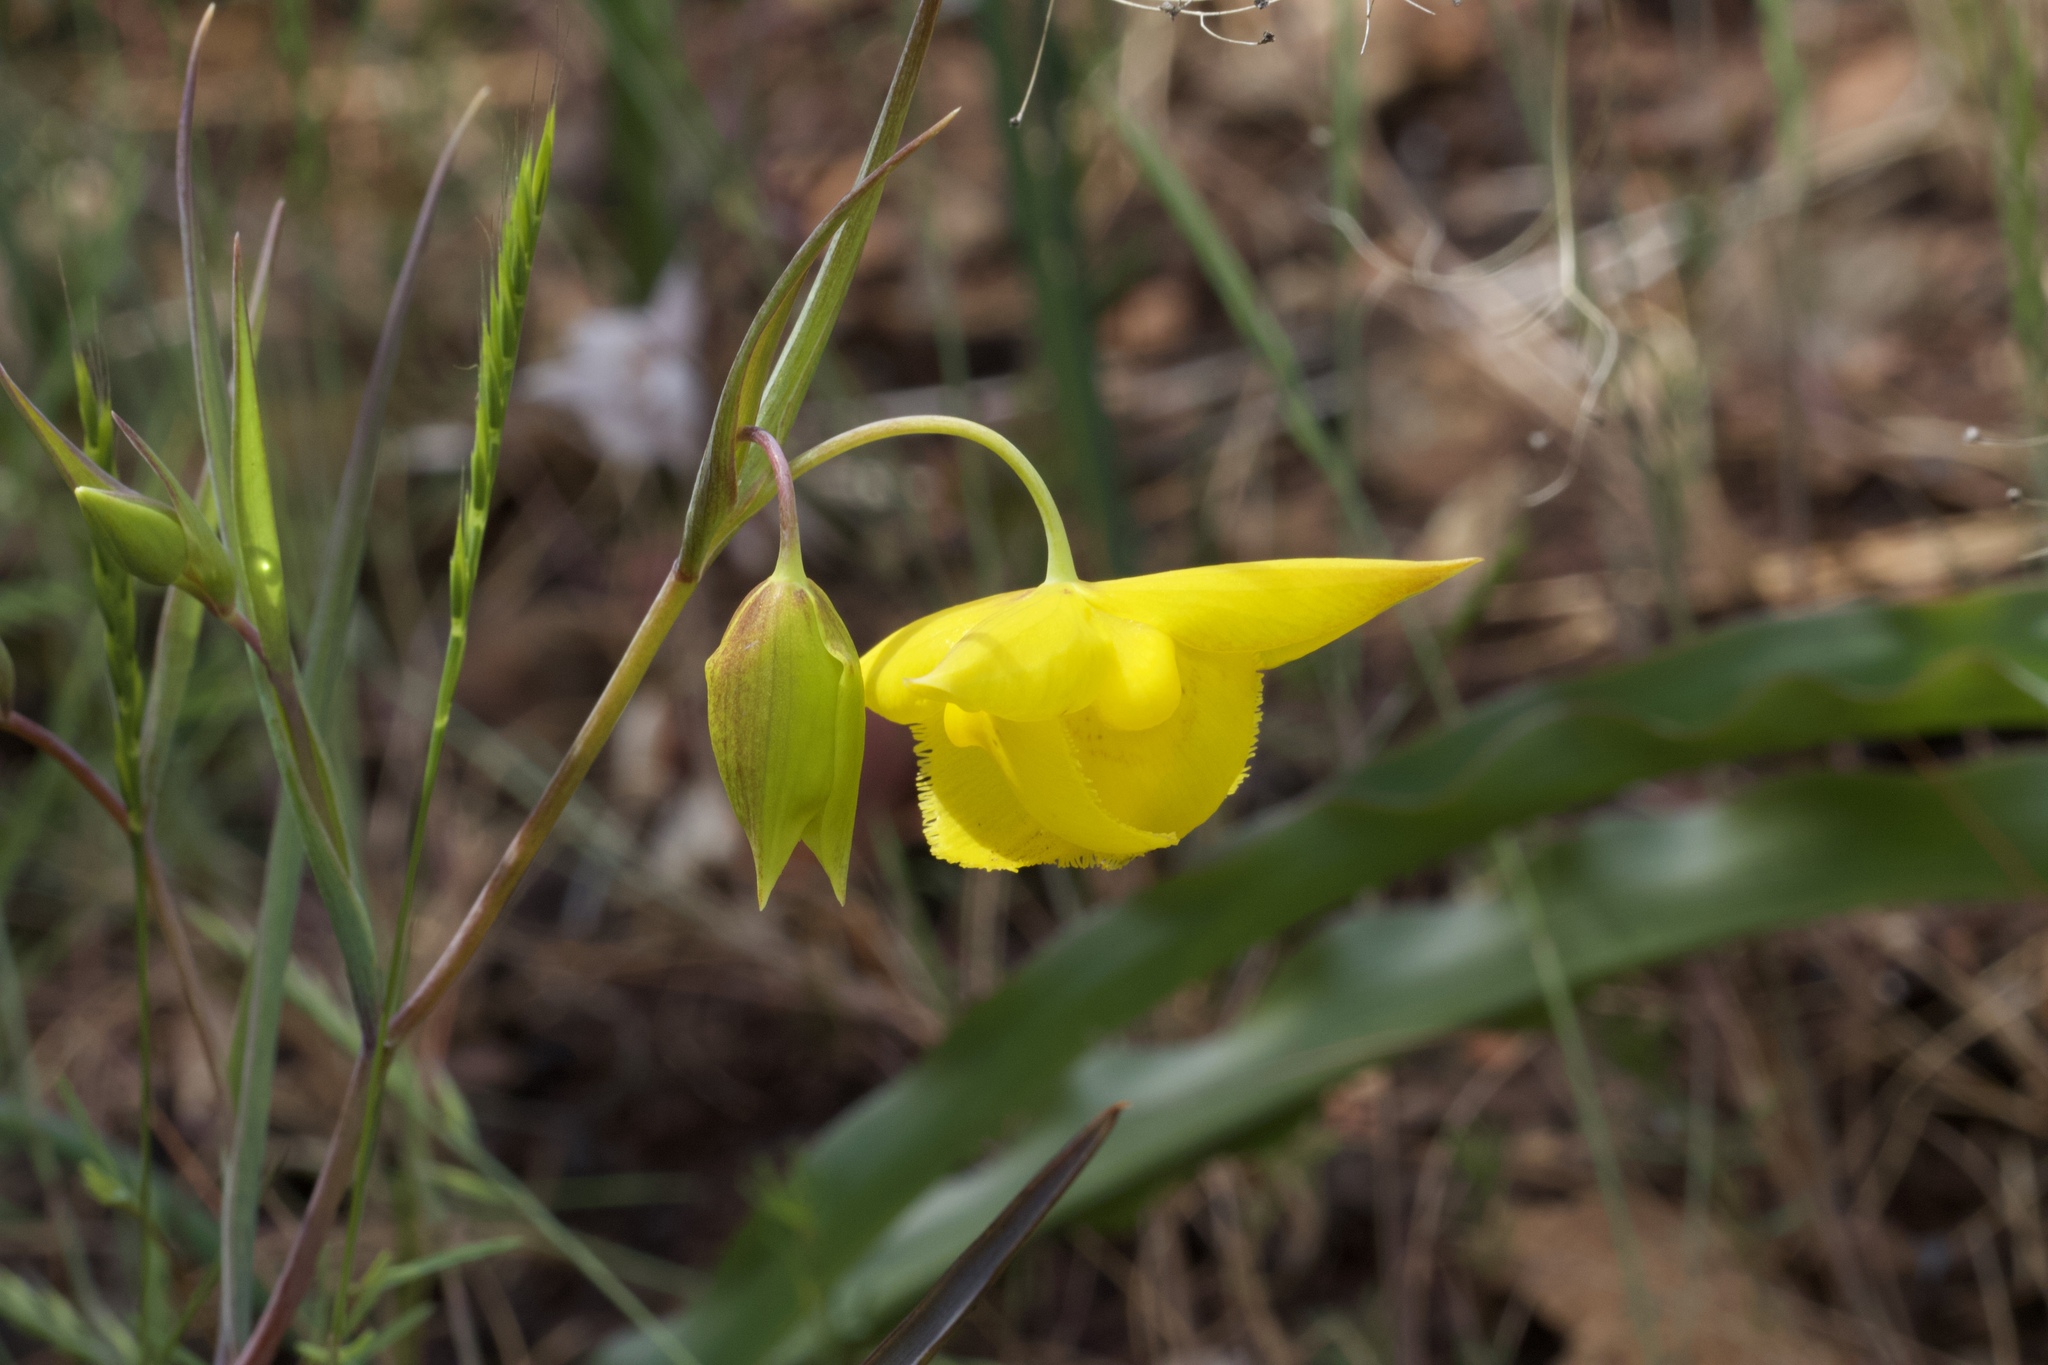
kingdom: Plantae
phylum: Tracheophyta
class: Liliopsida
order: Liliales
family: Liliaceae
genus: Calochortus
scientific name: Calochortus amabilis
